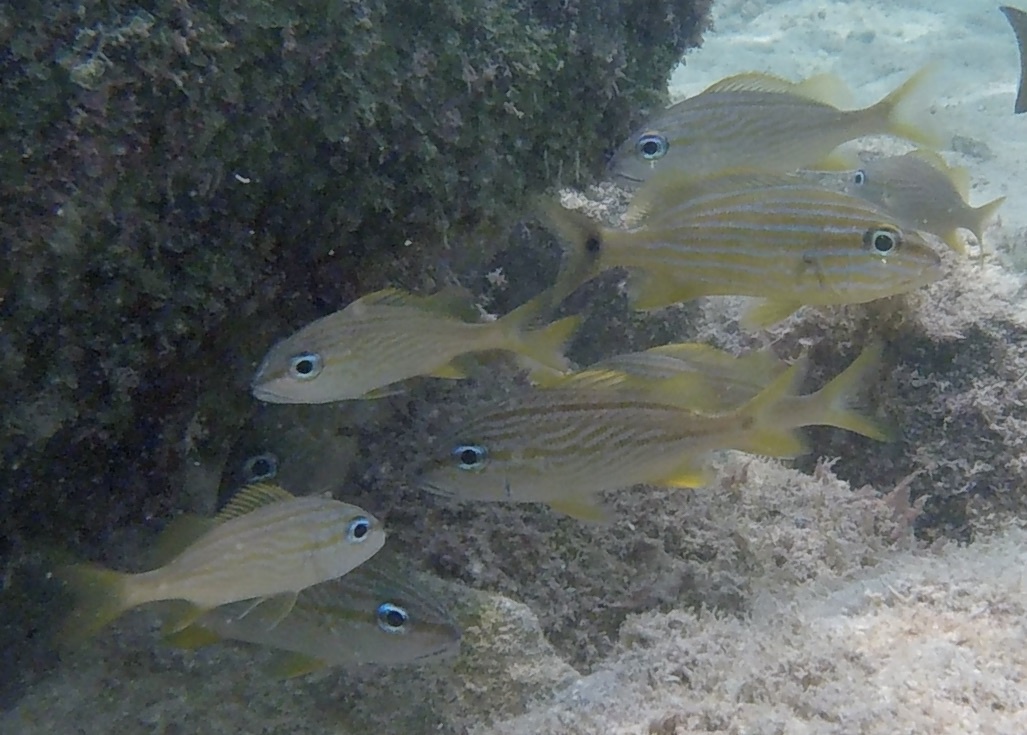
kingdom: Animalia
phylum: Chordata
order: Perciformes
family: Haemulidae
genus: Haemulon
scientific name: Haemulon flavolineatum
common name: French grunt
